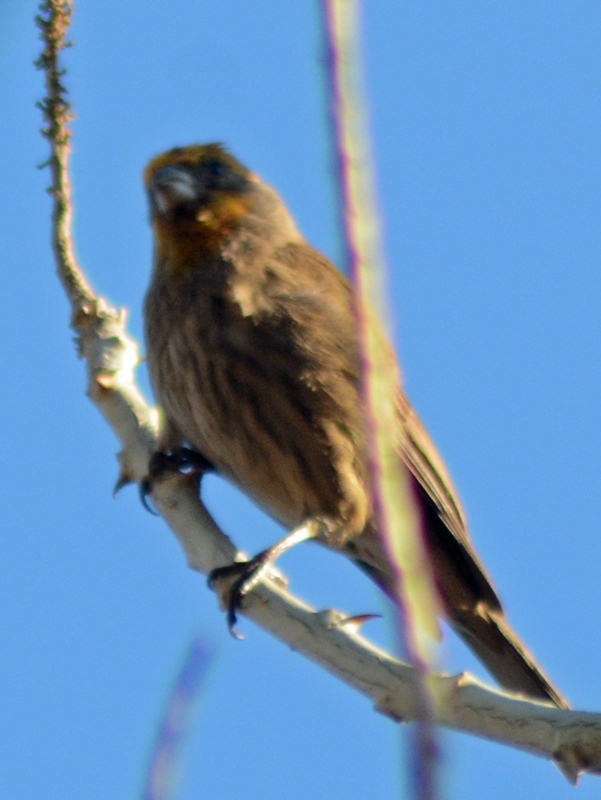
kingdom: Animalia
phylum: Chordata
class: Aves
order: Passeriformes
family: Fringillidae
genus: Haemorhous
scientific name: Haemorhous mexicanus
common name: House finch
